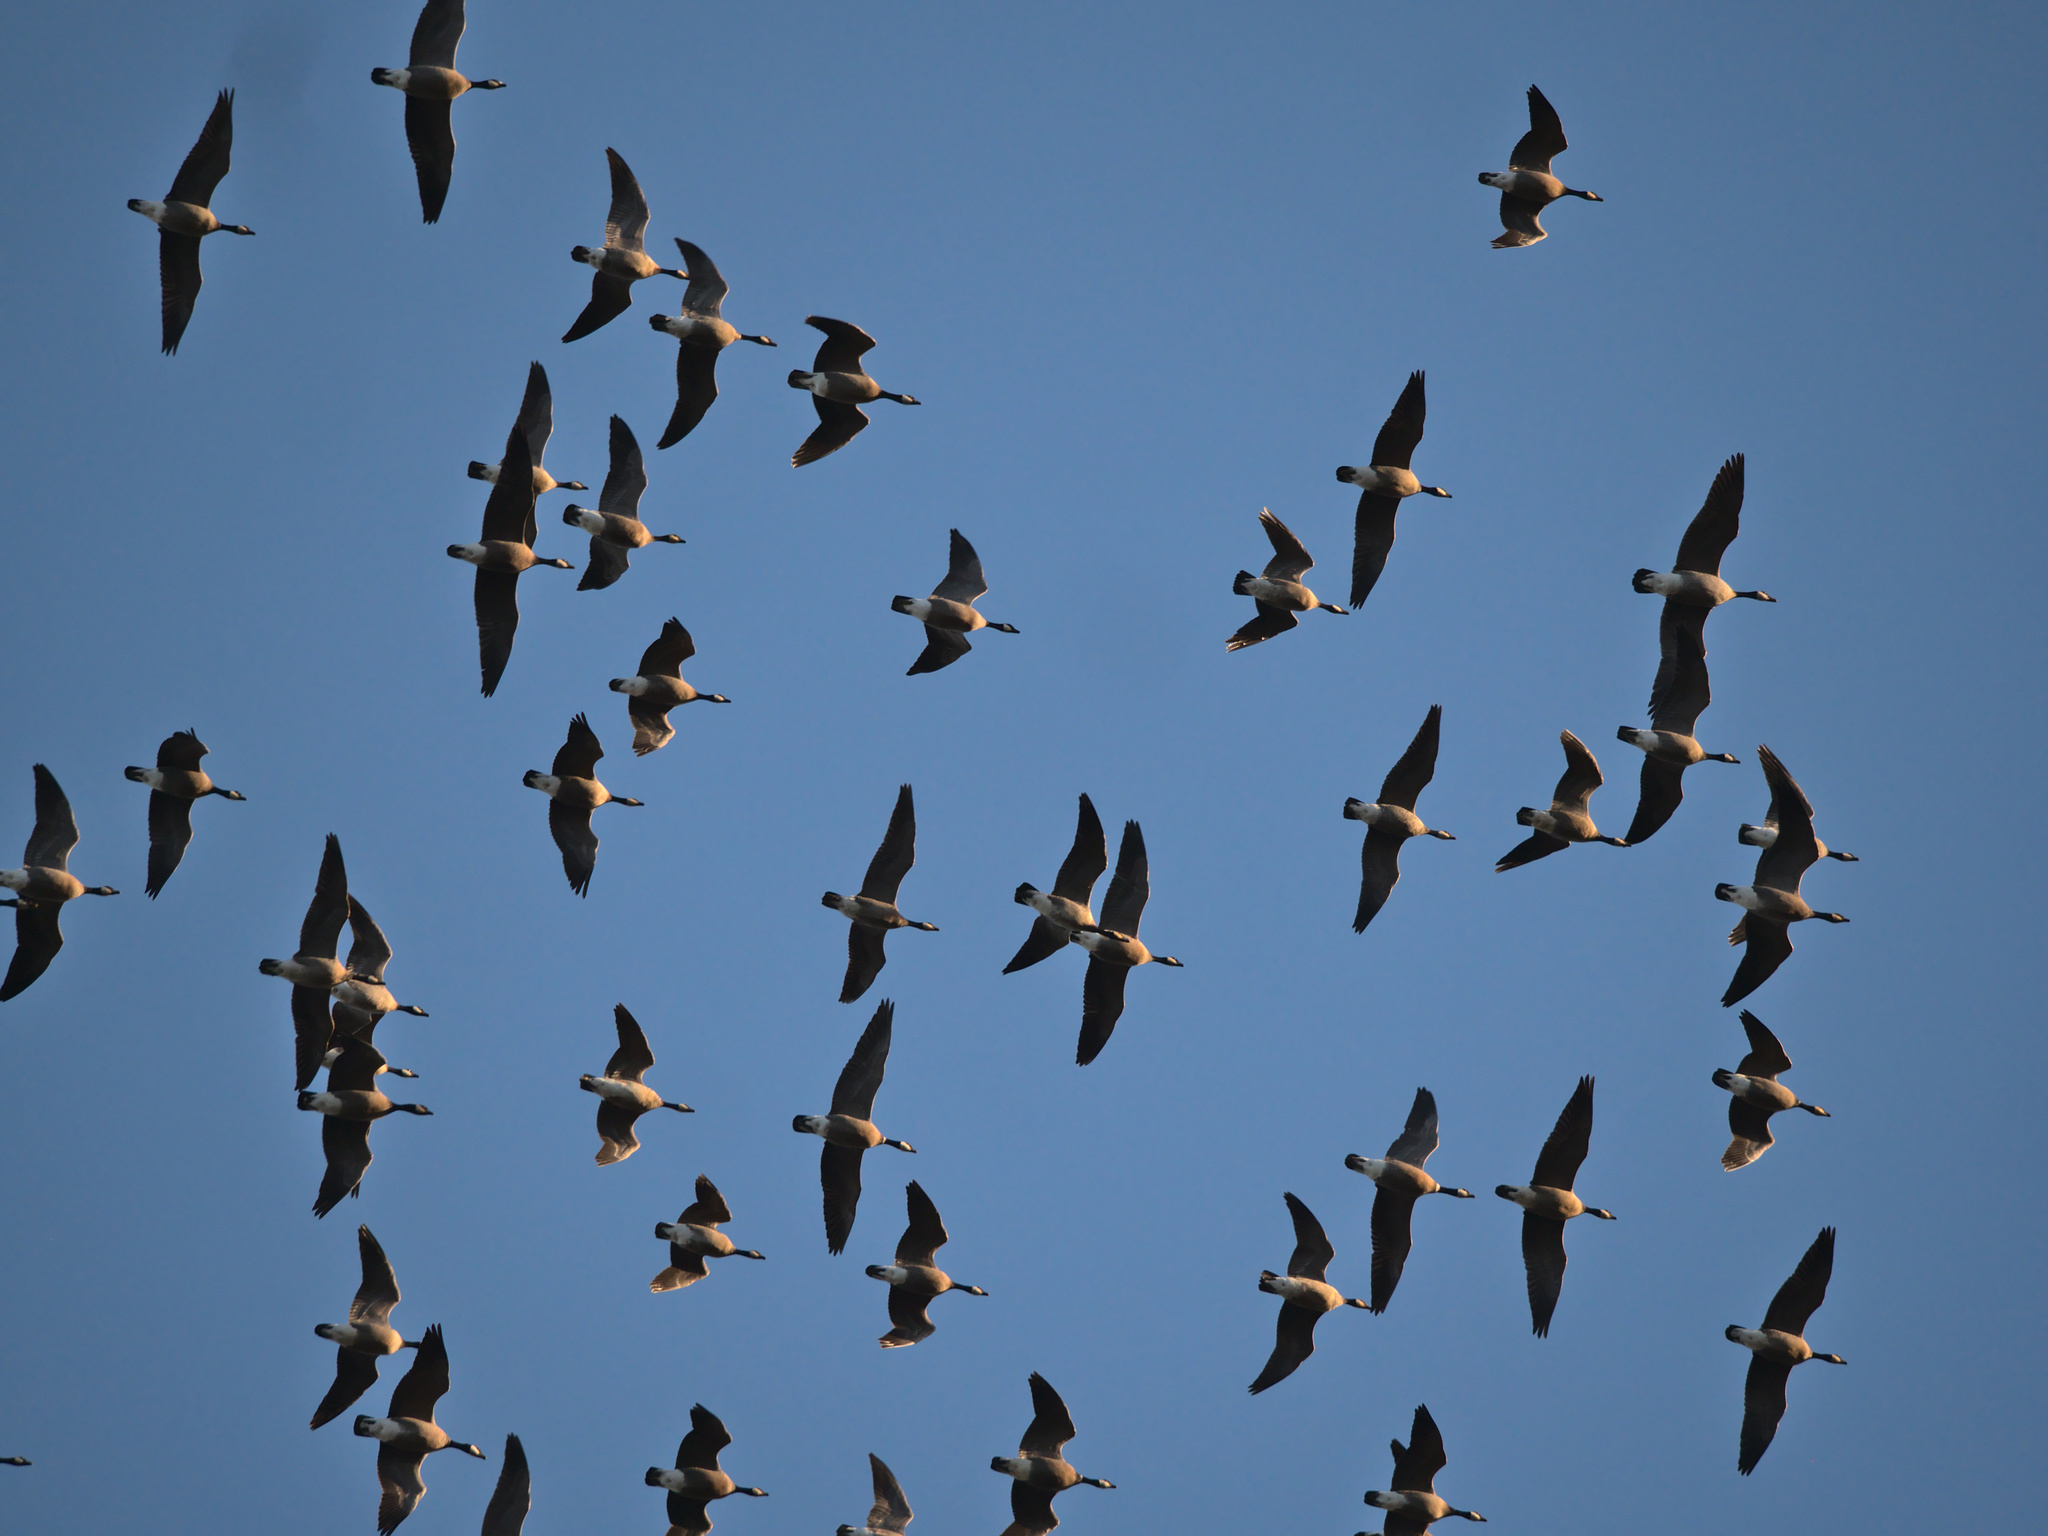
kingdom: Animalia
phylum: Chordata
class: Aves
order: Anseriformes
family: Anatidae
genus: Branta
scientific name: Branta canadensis
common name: Canada goose
